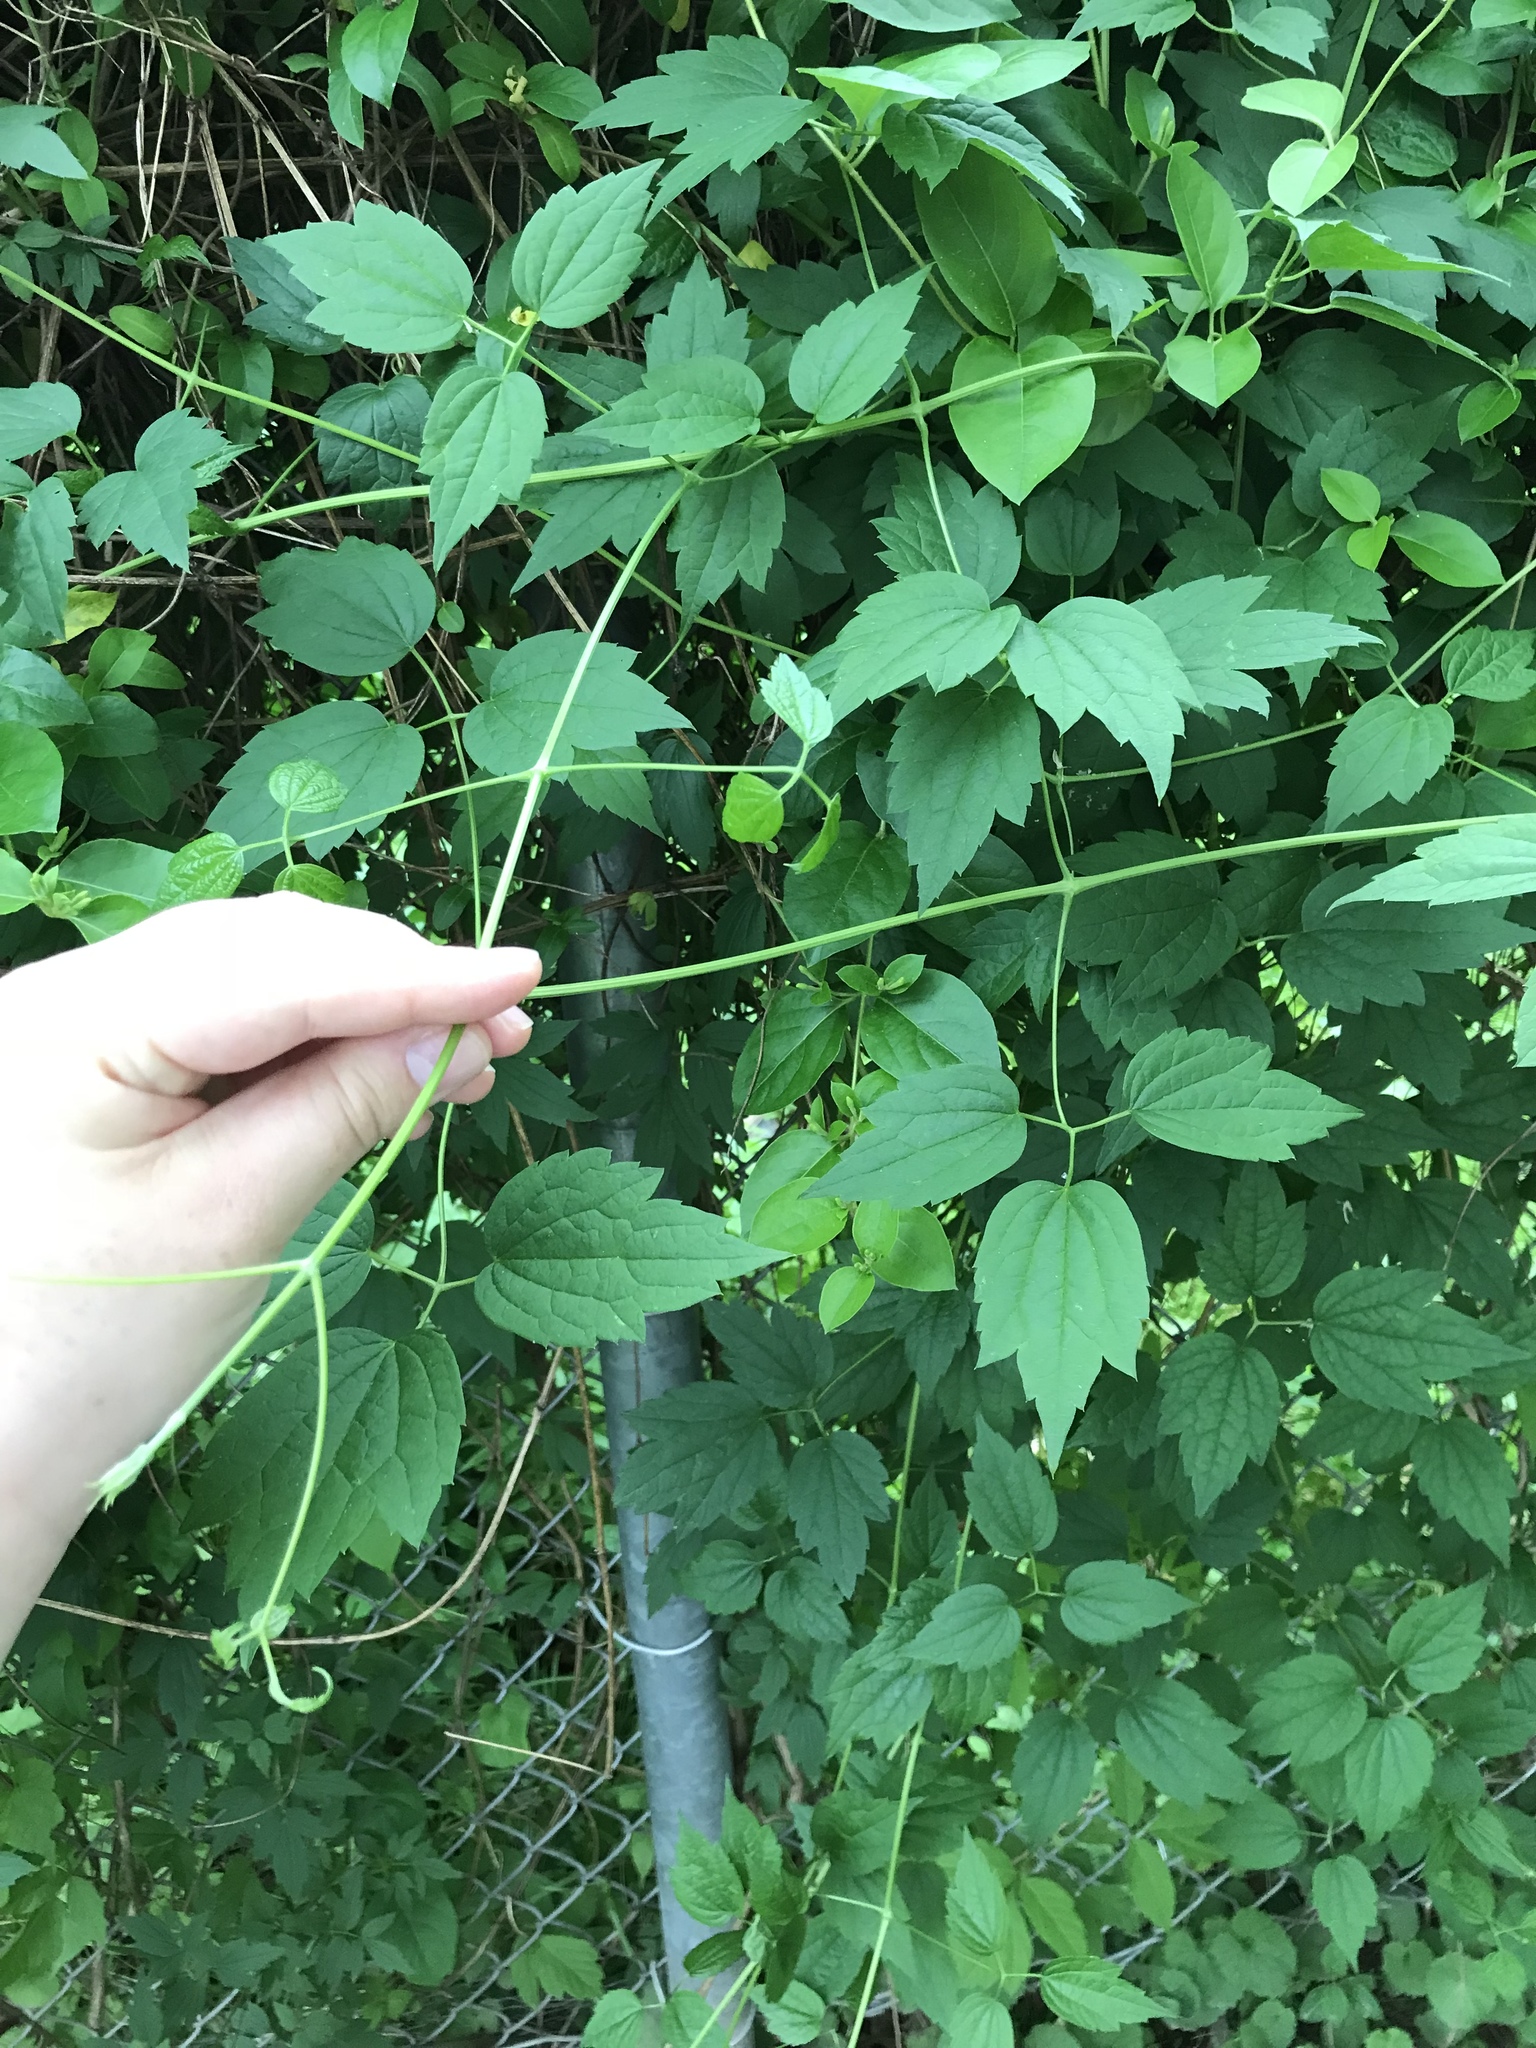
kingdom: Plantae
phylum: Tracheophyta
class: Magnoliopsida
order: Ranunculales
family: Ranunculaceae
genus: Clematis
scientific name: Clematis virginiana
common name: Virgin's-bower
